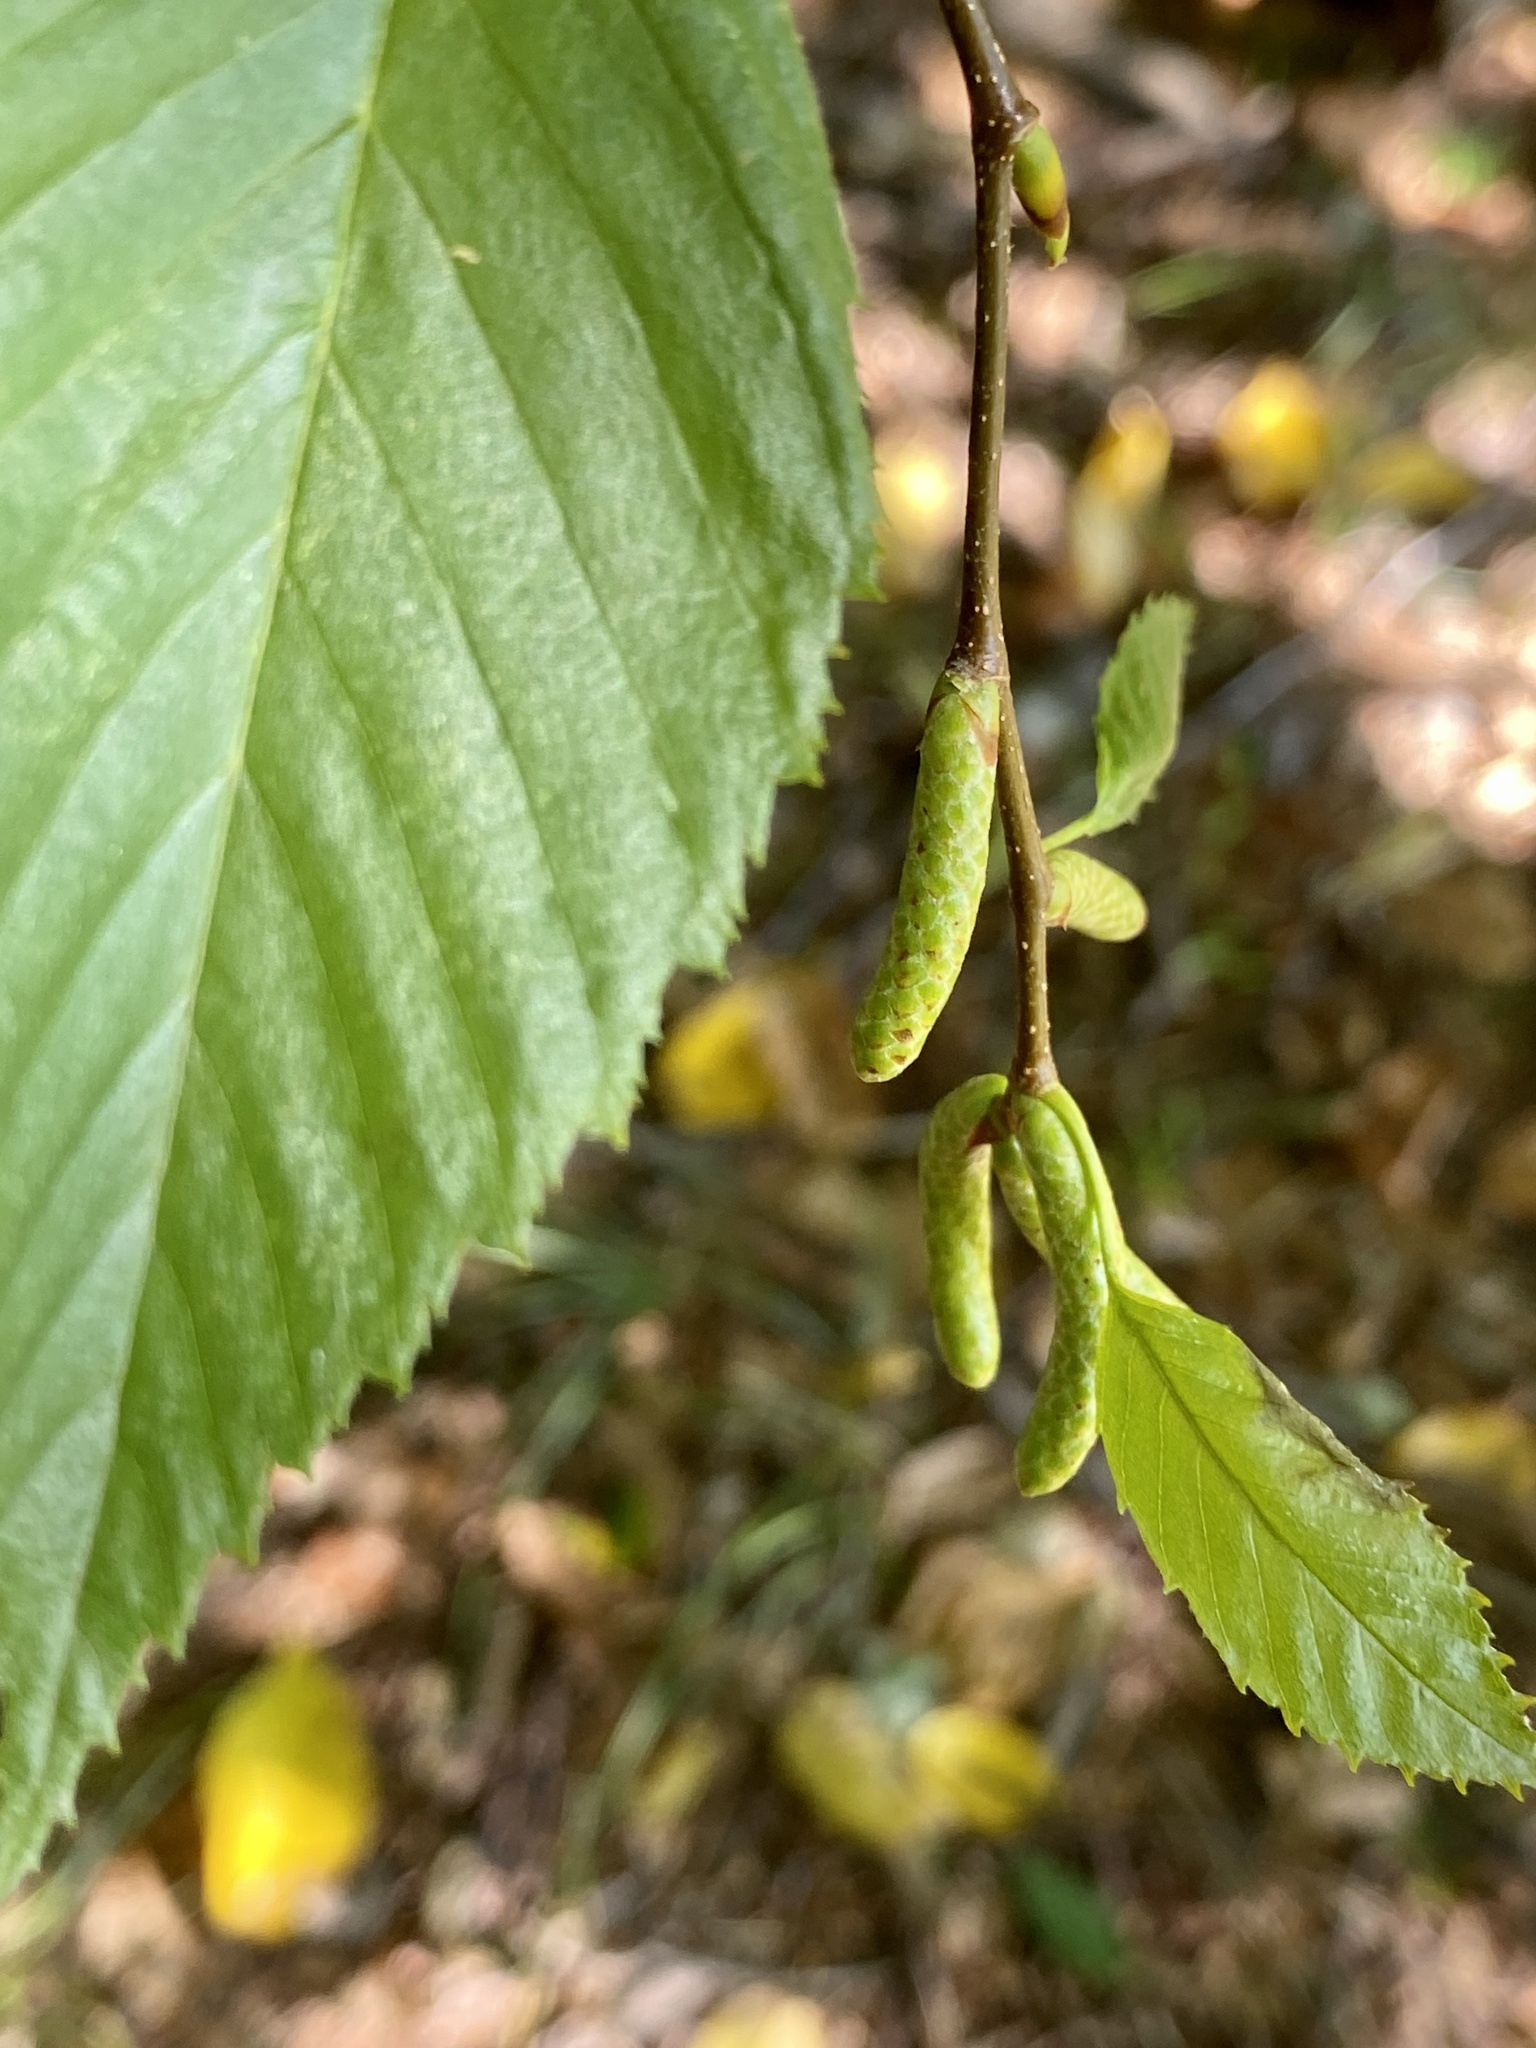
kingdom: Plantae
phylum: Tracheophyta
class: Magnoliopsida
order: Fagales
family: Betulaceae
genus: Betula
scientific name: Betula lenta
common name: Black birch
